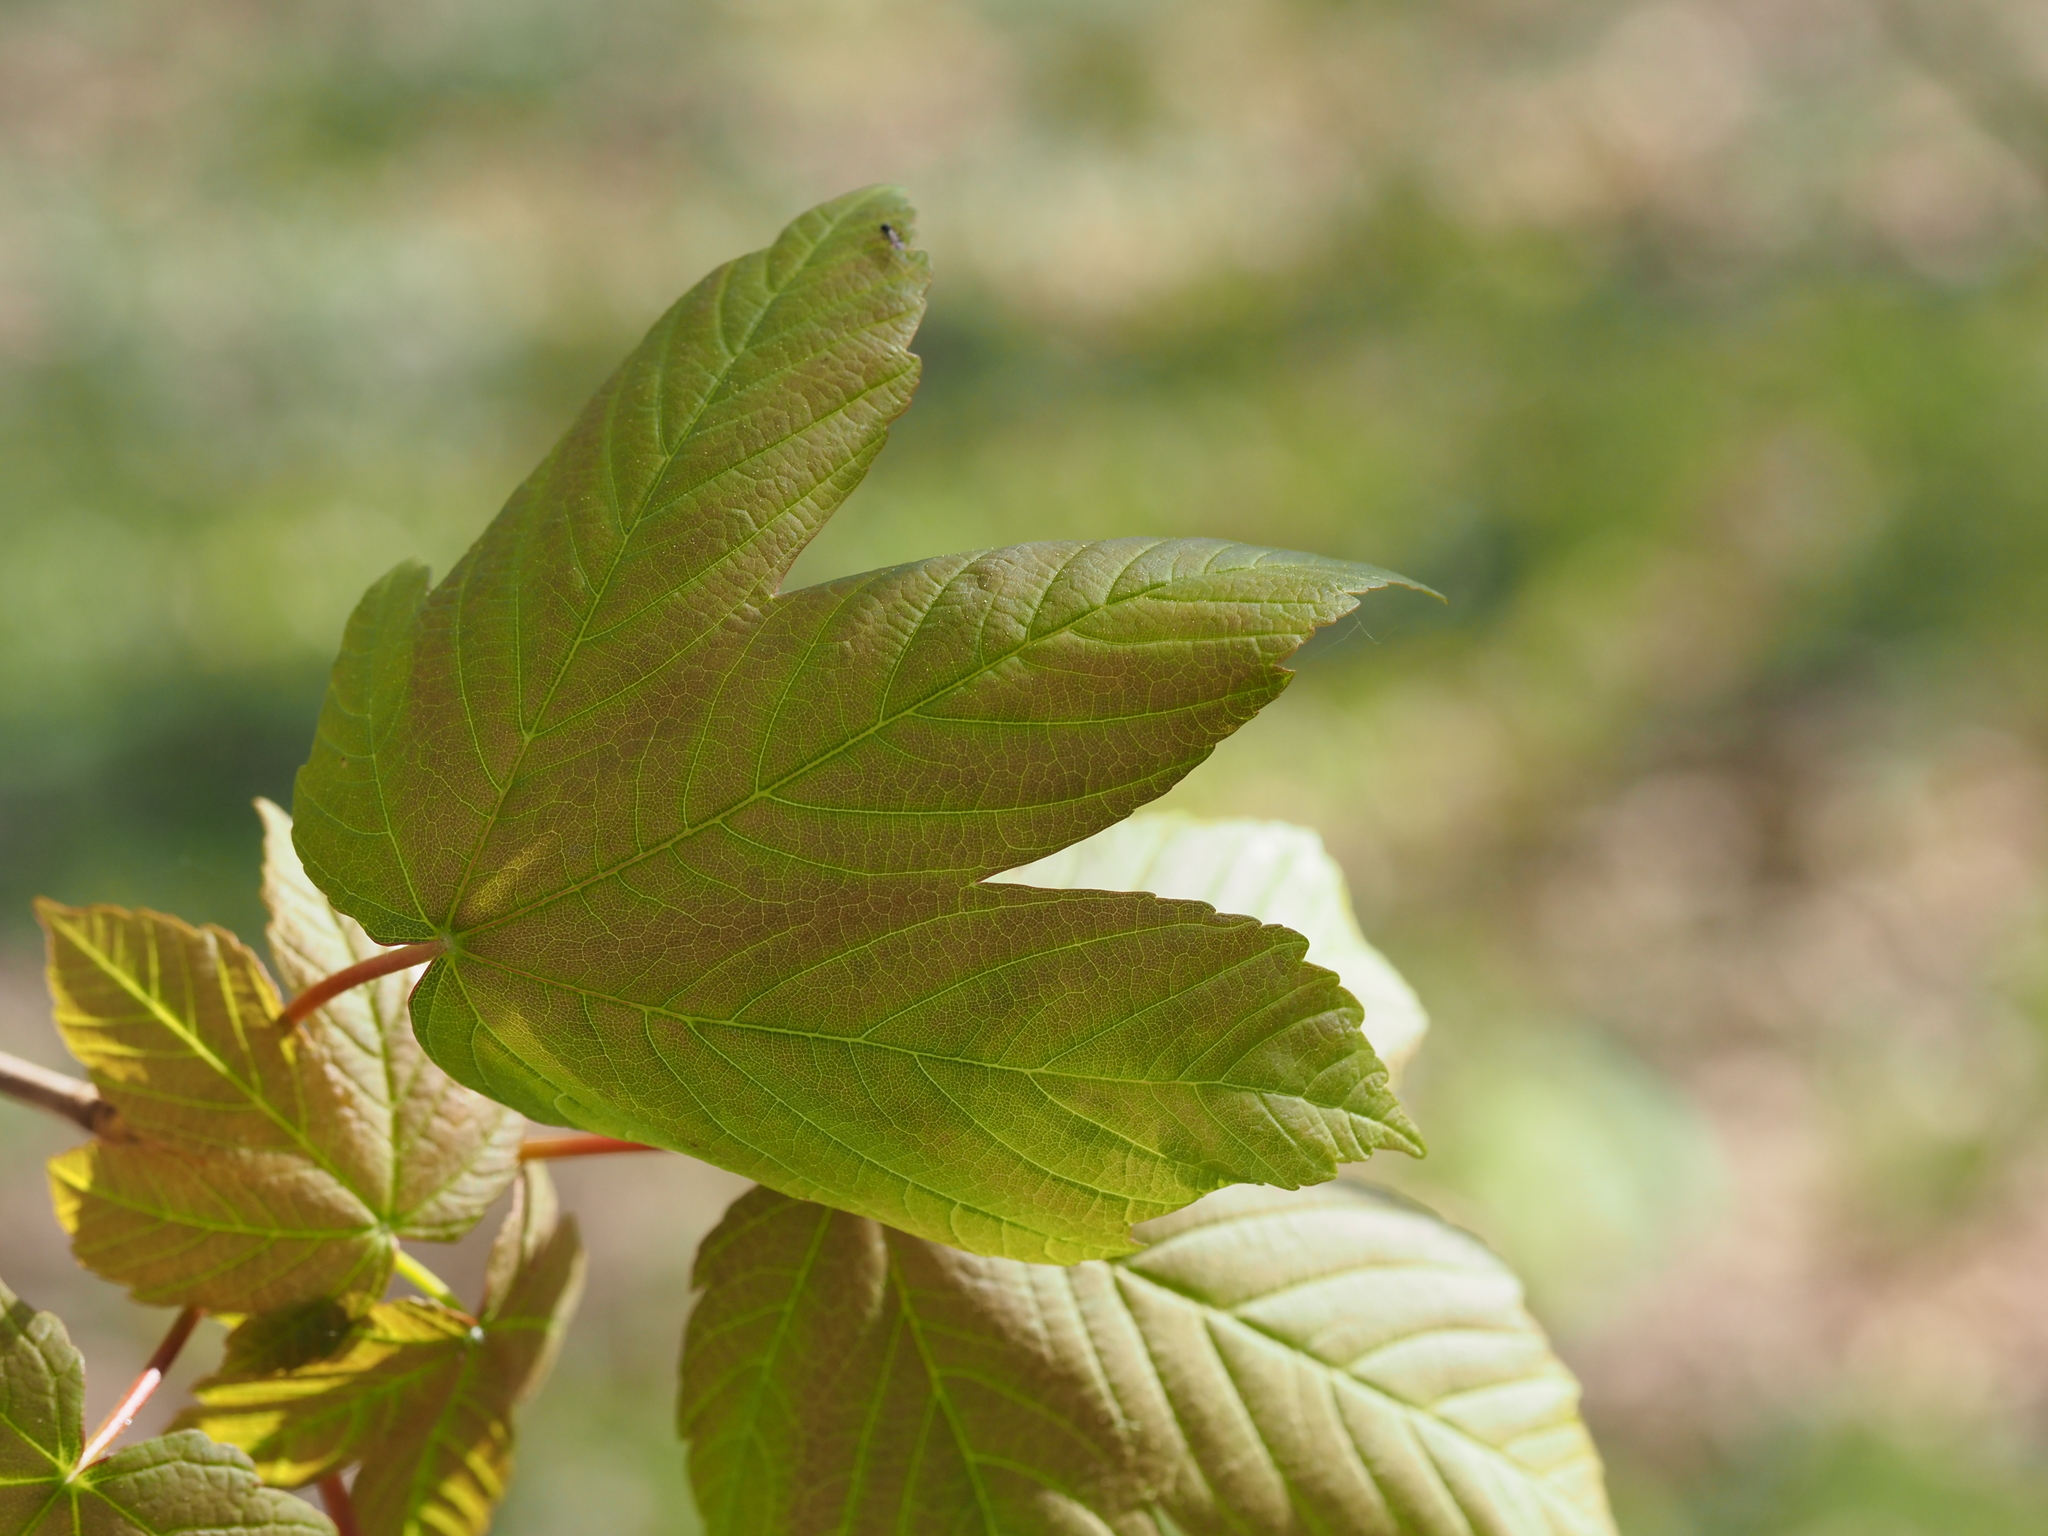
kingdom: Plantae
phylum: Tracheophyta
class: Magnoliopsida
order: Sapindales
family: Sapindaceae
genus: Acer
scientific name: Acer pseudoplatanus
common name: Sycamore
